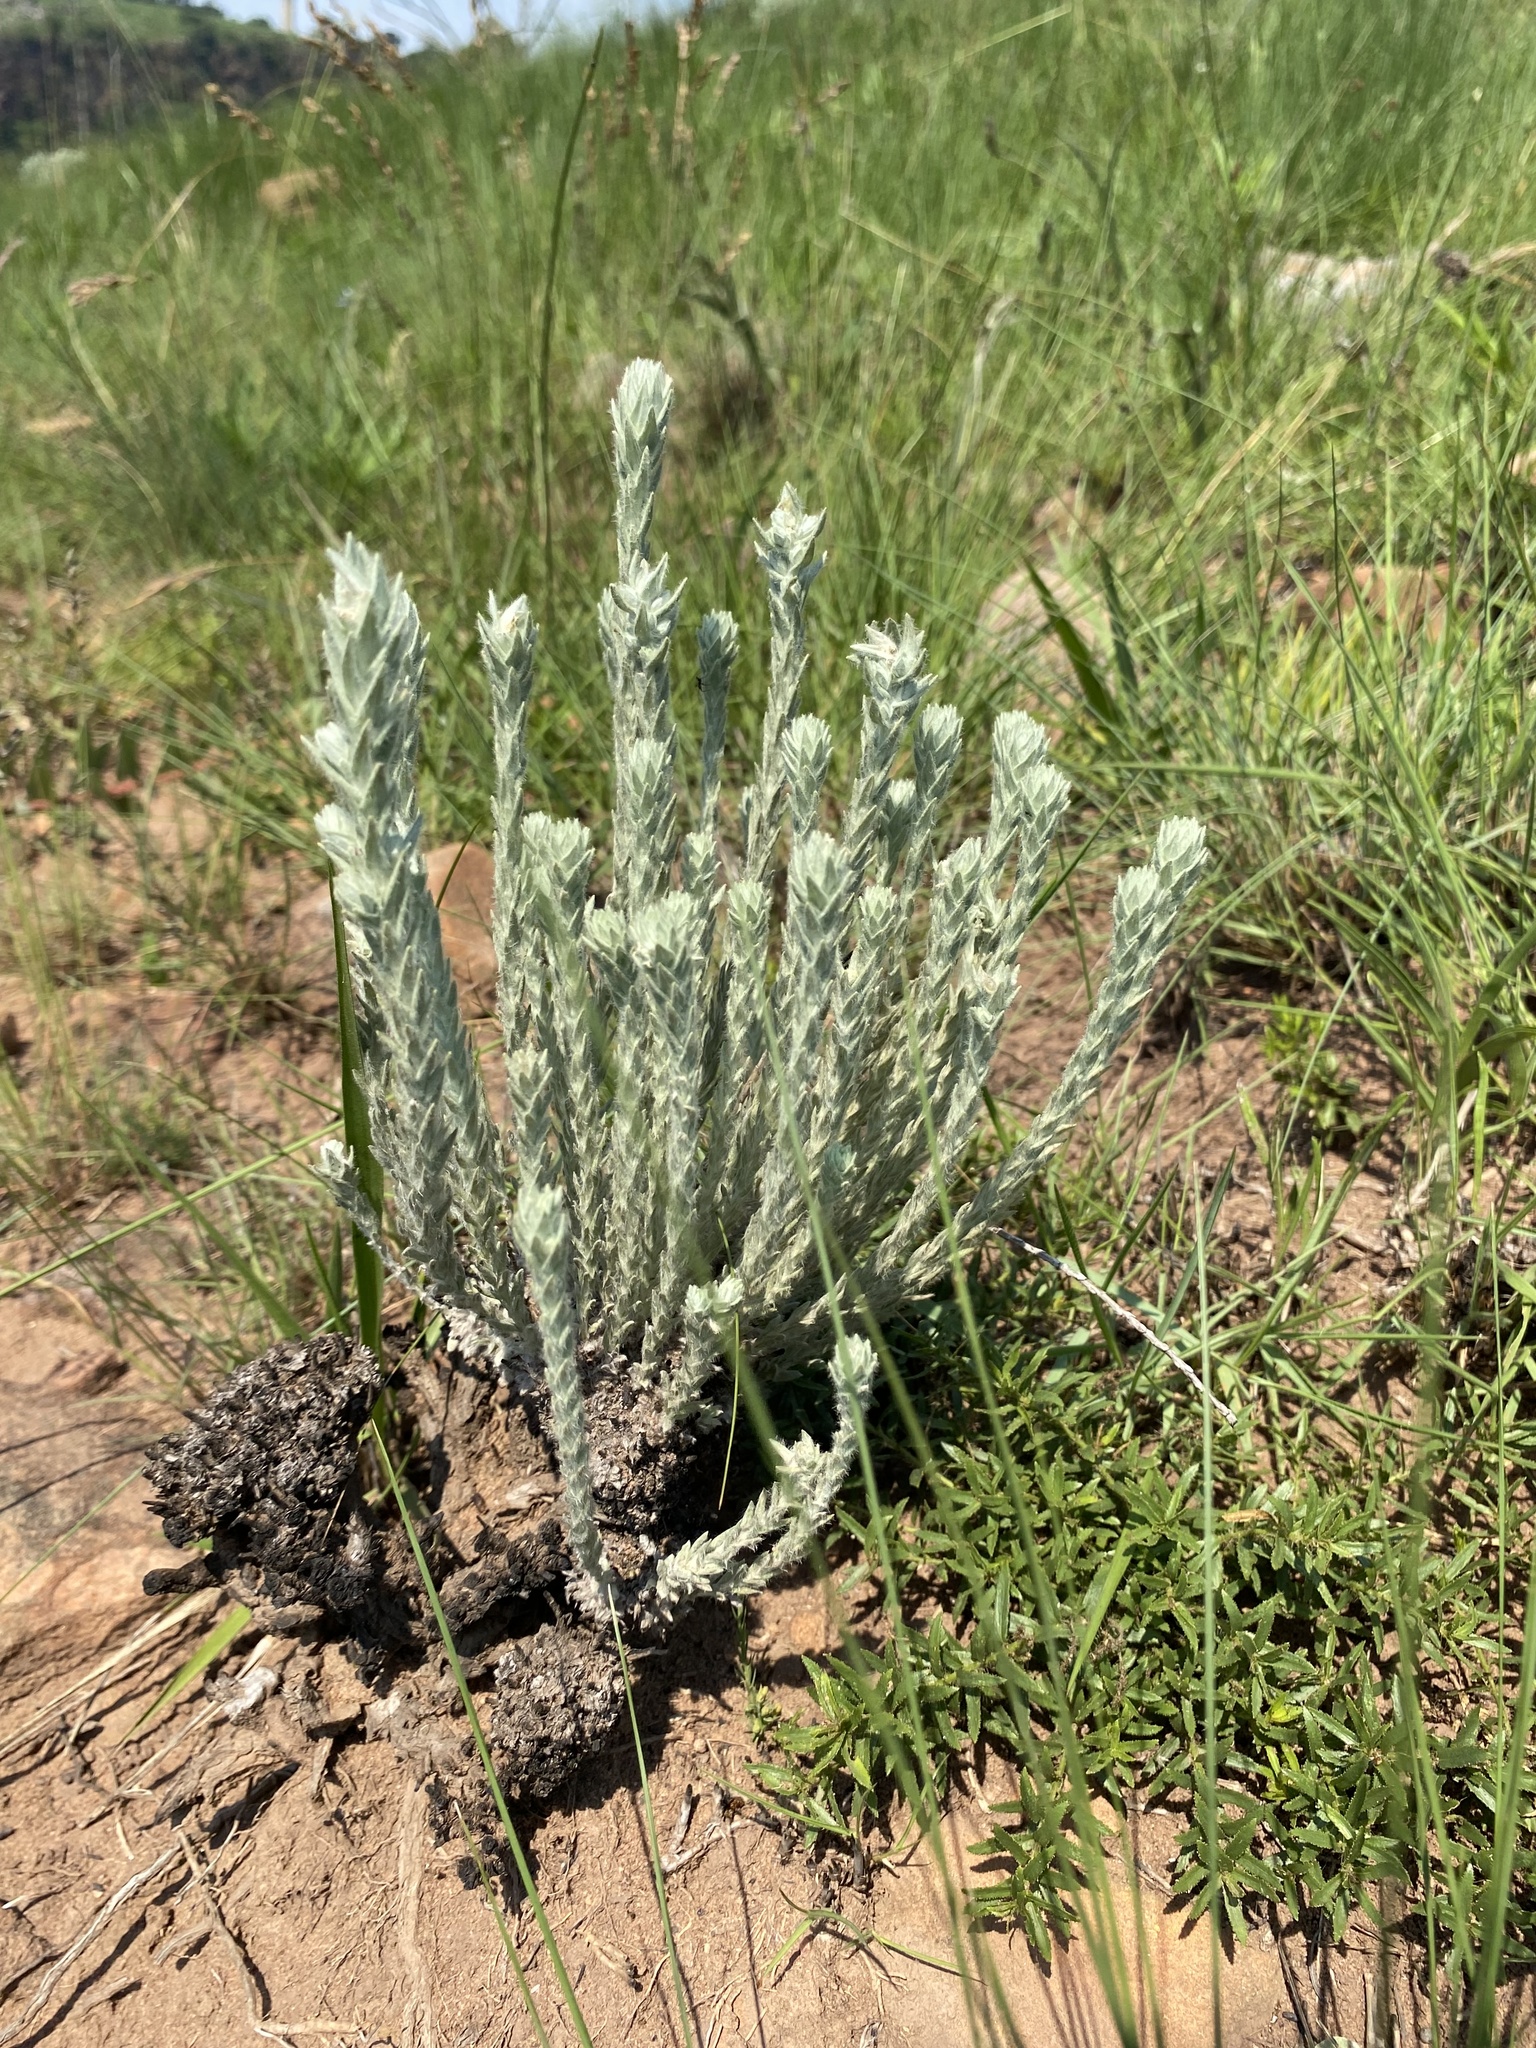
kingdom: Plantae
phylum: Tracheophyta
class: Magnoliopsida
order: Asterales
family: Asteraceae
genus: Helichrysum
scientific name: Helichrysum herbaceum
